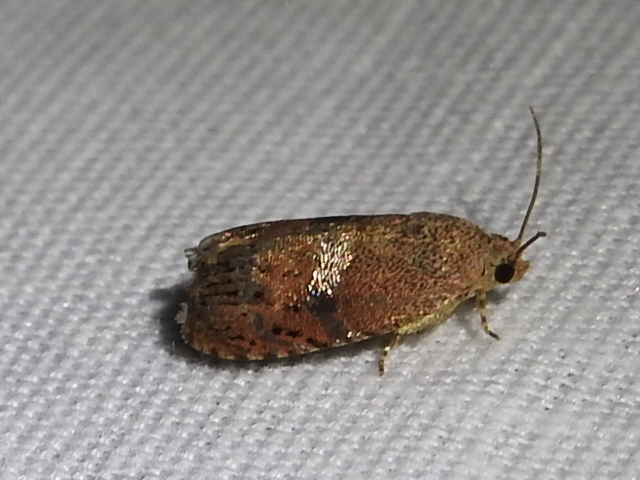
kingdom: Animalia
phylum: Arthropoda
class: Insecta
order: Lepidoptera
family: Tortricidae
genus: Cydia
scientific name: Cydia latiferreana
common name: Filbertworm moth
